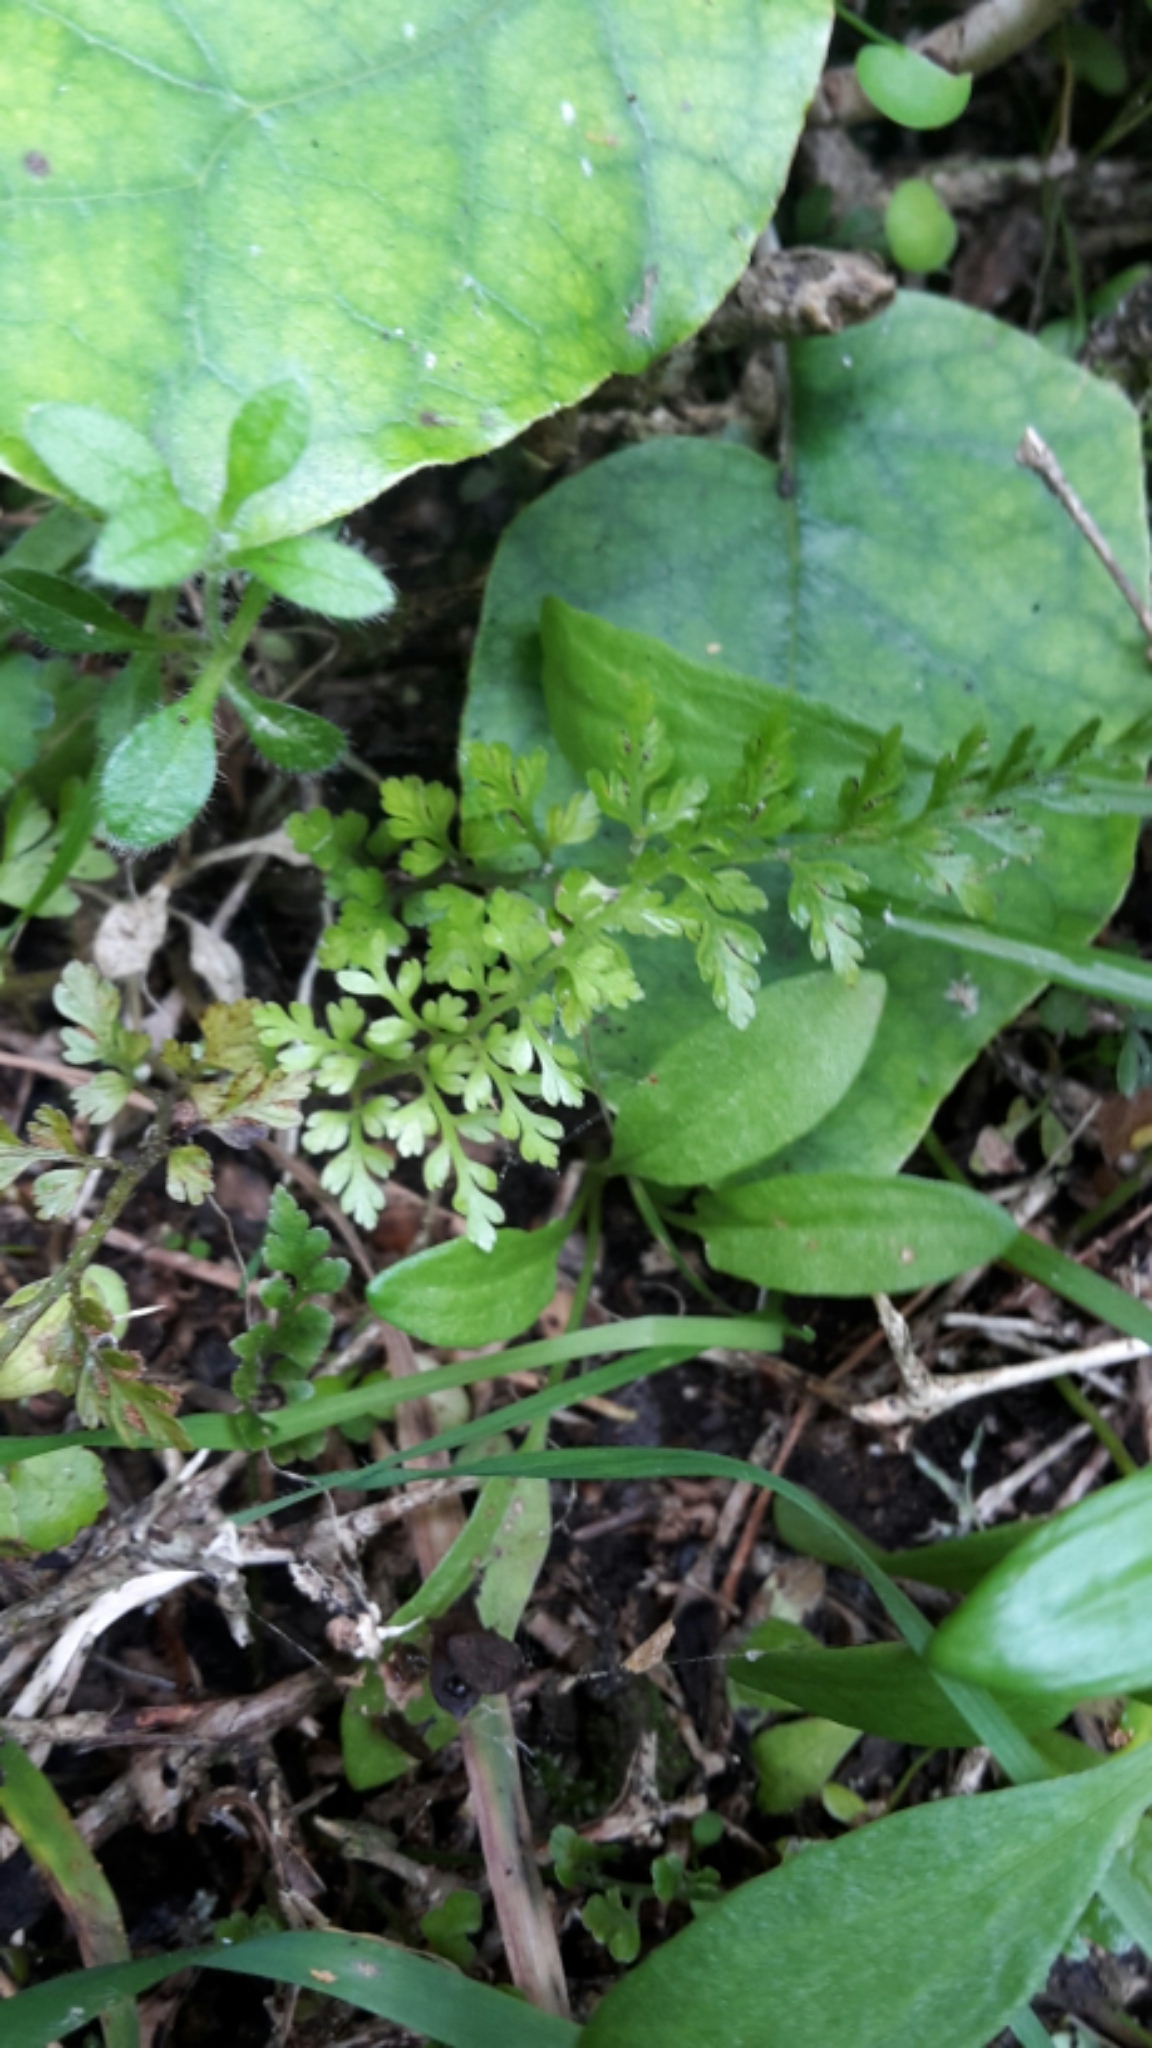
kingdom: Plantae
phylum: Tracheophyta
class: Polypodiopsida
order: Polypodiales
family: Aspleniaceae
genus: Asplenium
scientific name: Asplenium hookerianum
